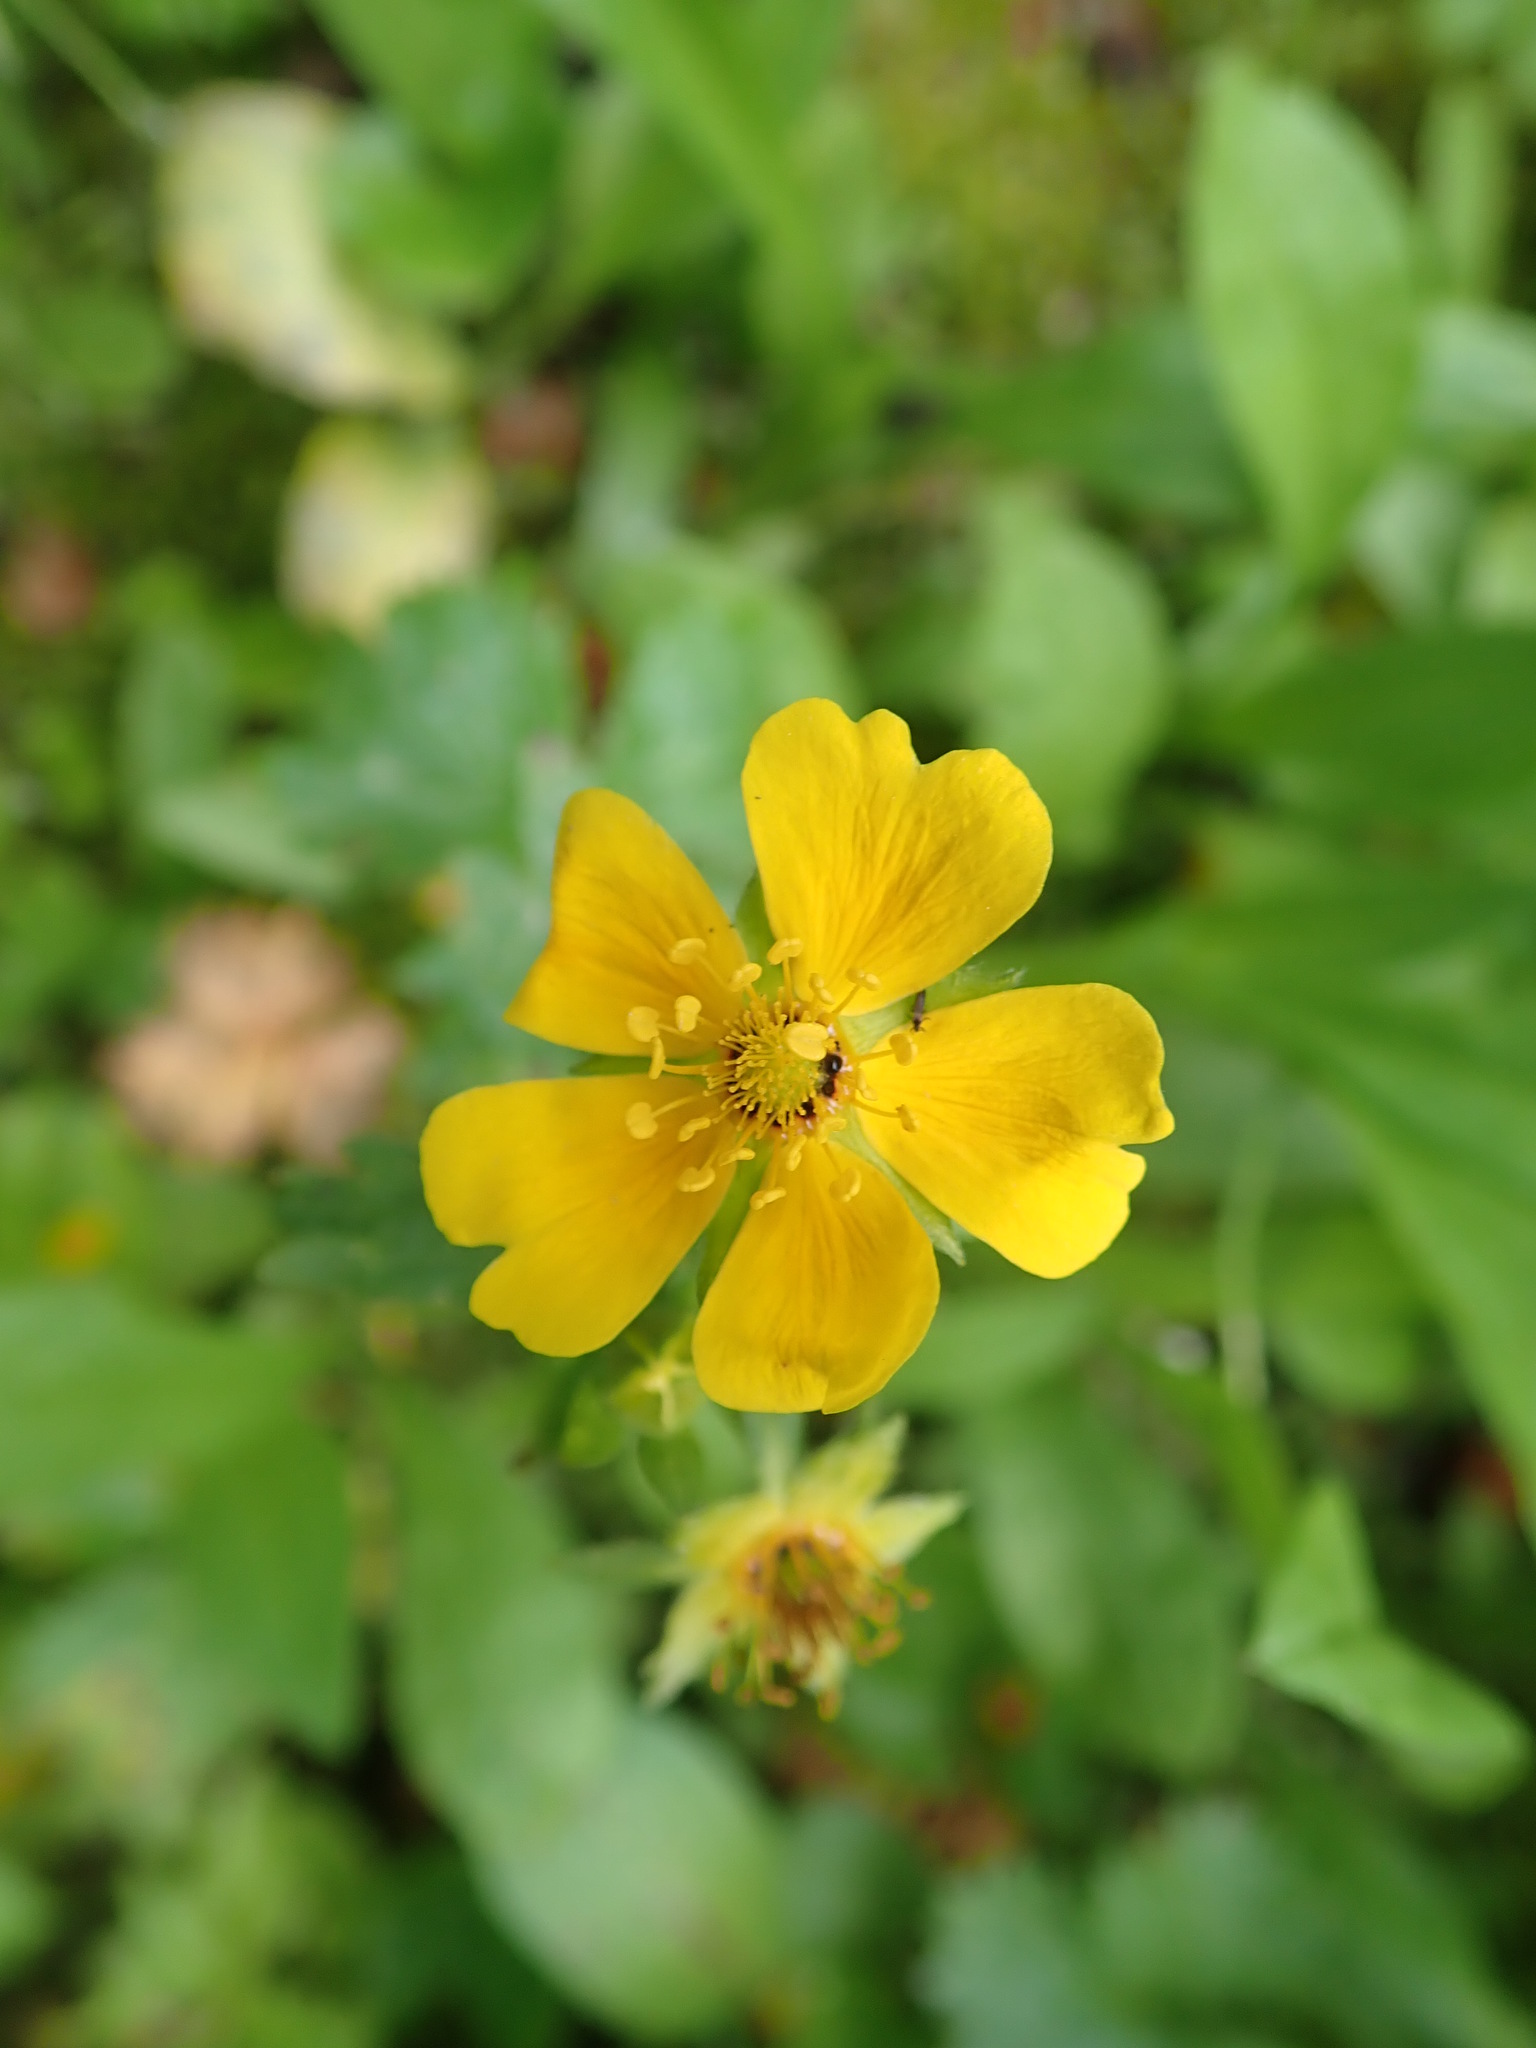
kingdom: Plantae
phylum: Tracheophyta
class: Magnoliopsida
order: Rosales
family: Rosaceae
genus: Potentilla
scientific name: Potentilla flabellifolia
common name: Mount rainier cinquefoil
